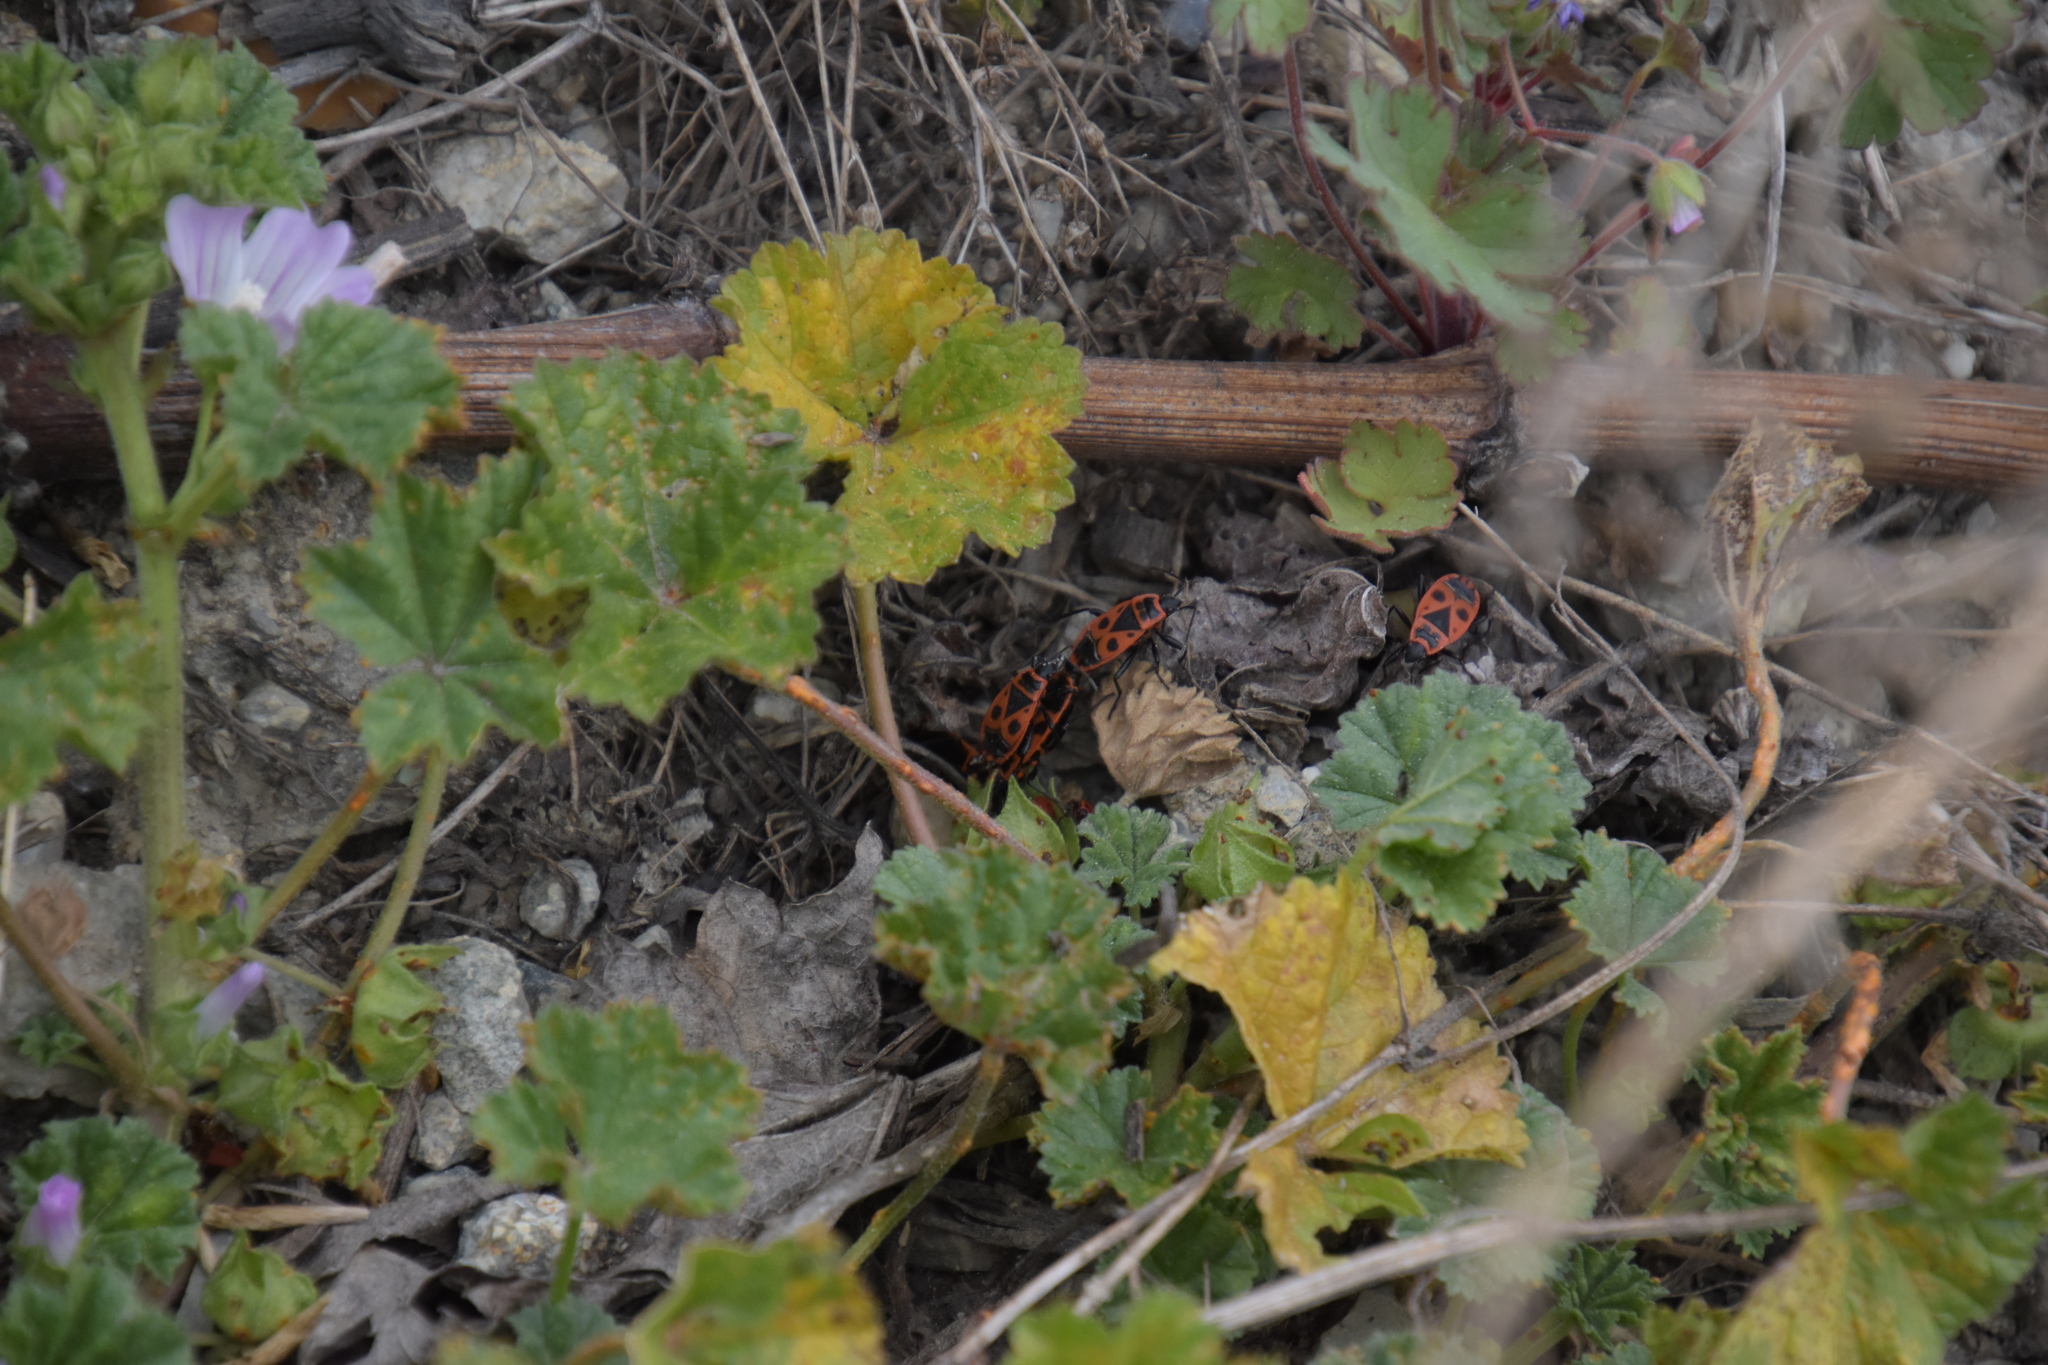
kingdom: Animalia
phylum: Arthropoda
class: Insecta
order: Hemiptera
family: Pyrrhocoridae
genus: Pyrrhocoris
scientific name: Pyrrhocoris apterus
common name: Firebug
